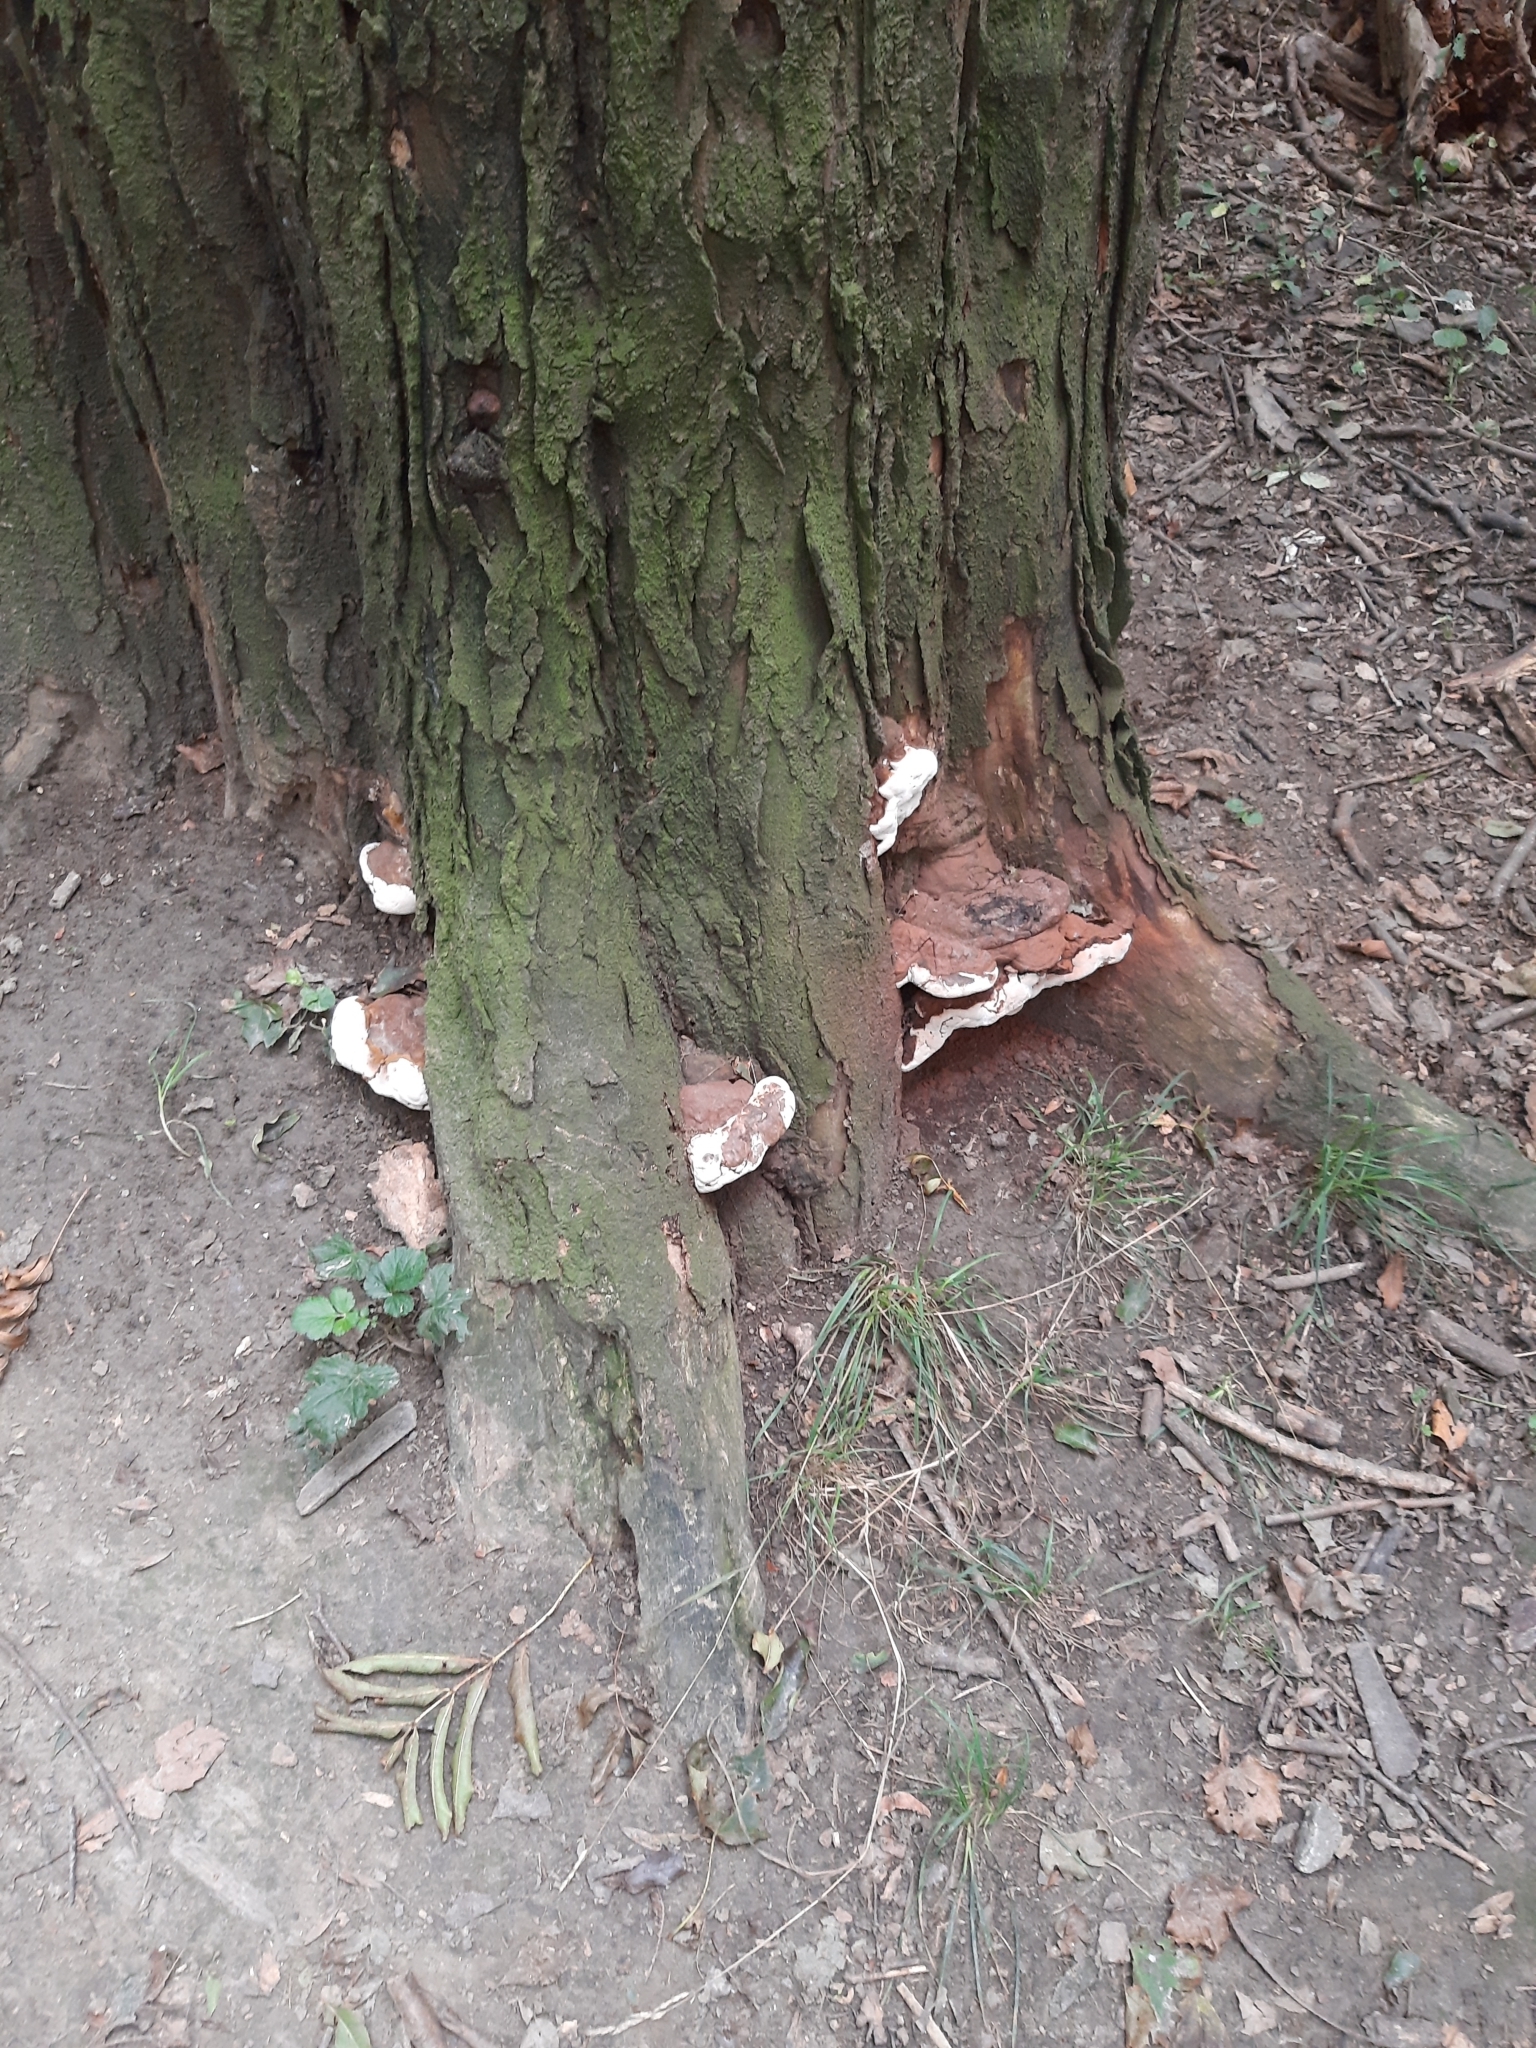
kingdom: Fungi
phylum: Basidiomycota
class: Agaricomycetes
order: Polyporales
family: Polyporaceae
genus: Ganoderma
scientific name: Ganoderma
